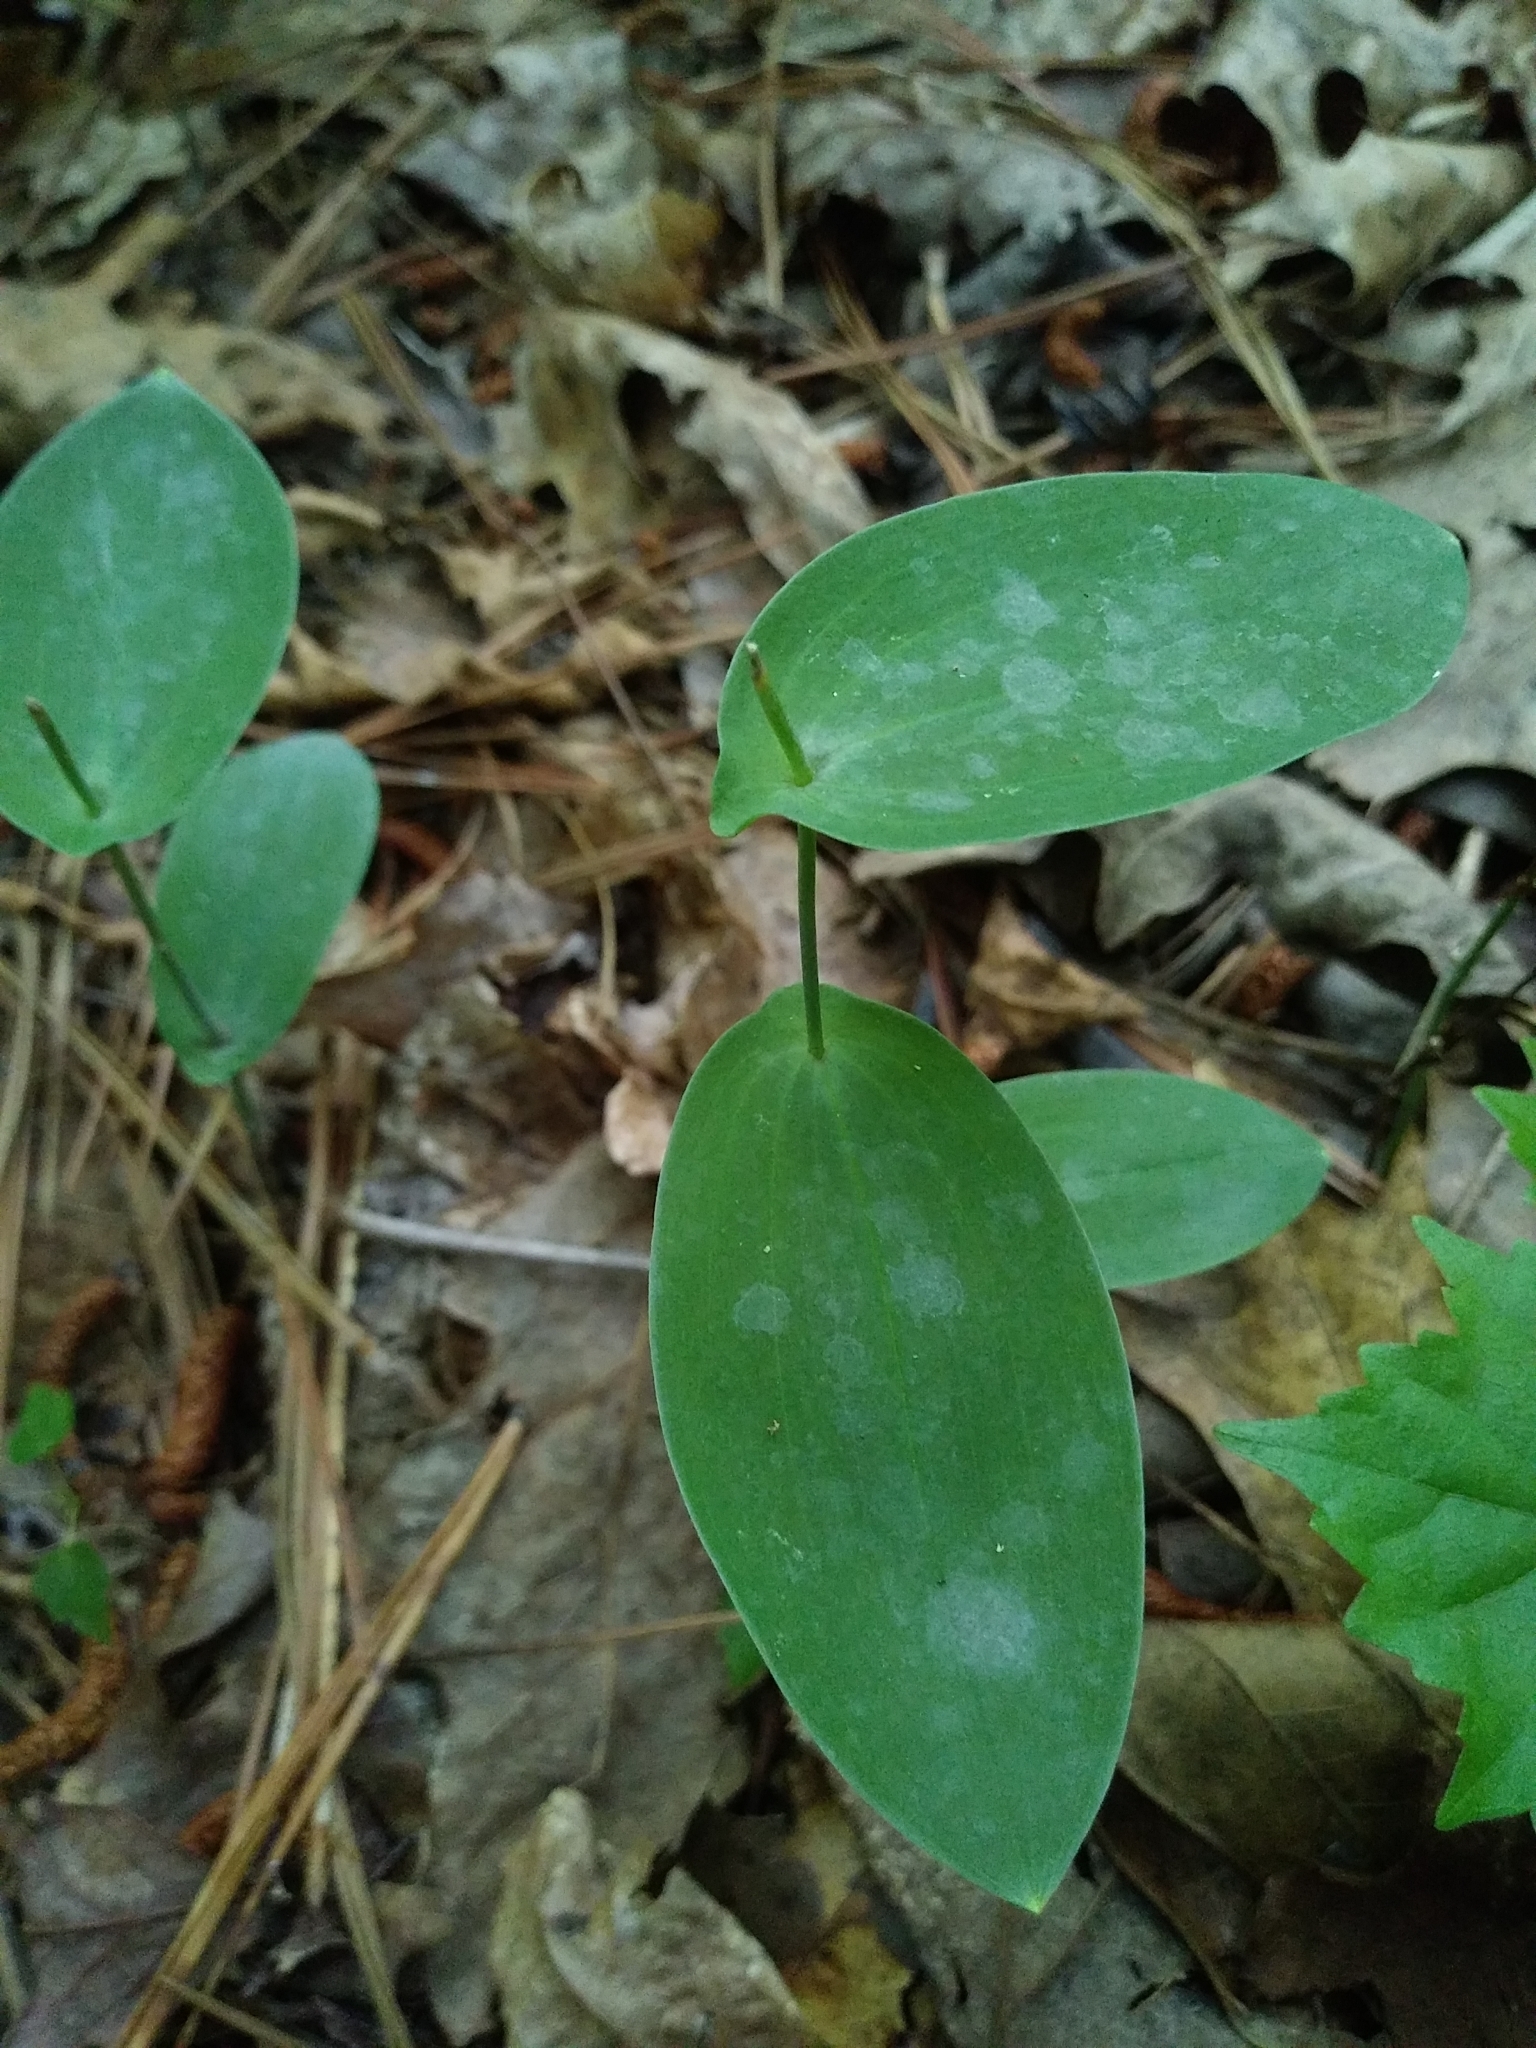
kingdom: Plantae
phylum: Tracheophyta
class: Liliopsida
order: Liliales
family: Colchicaceae
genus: Uvularia
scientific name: Uvularia perfoliata
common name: Perfoliate bellwort
